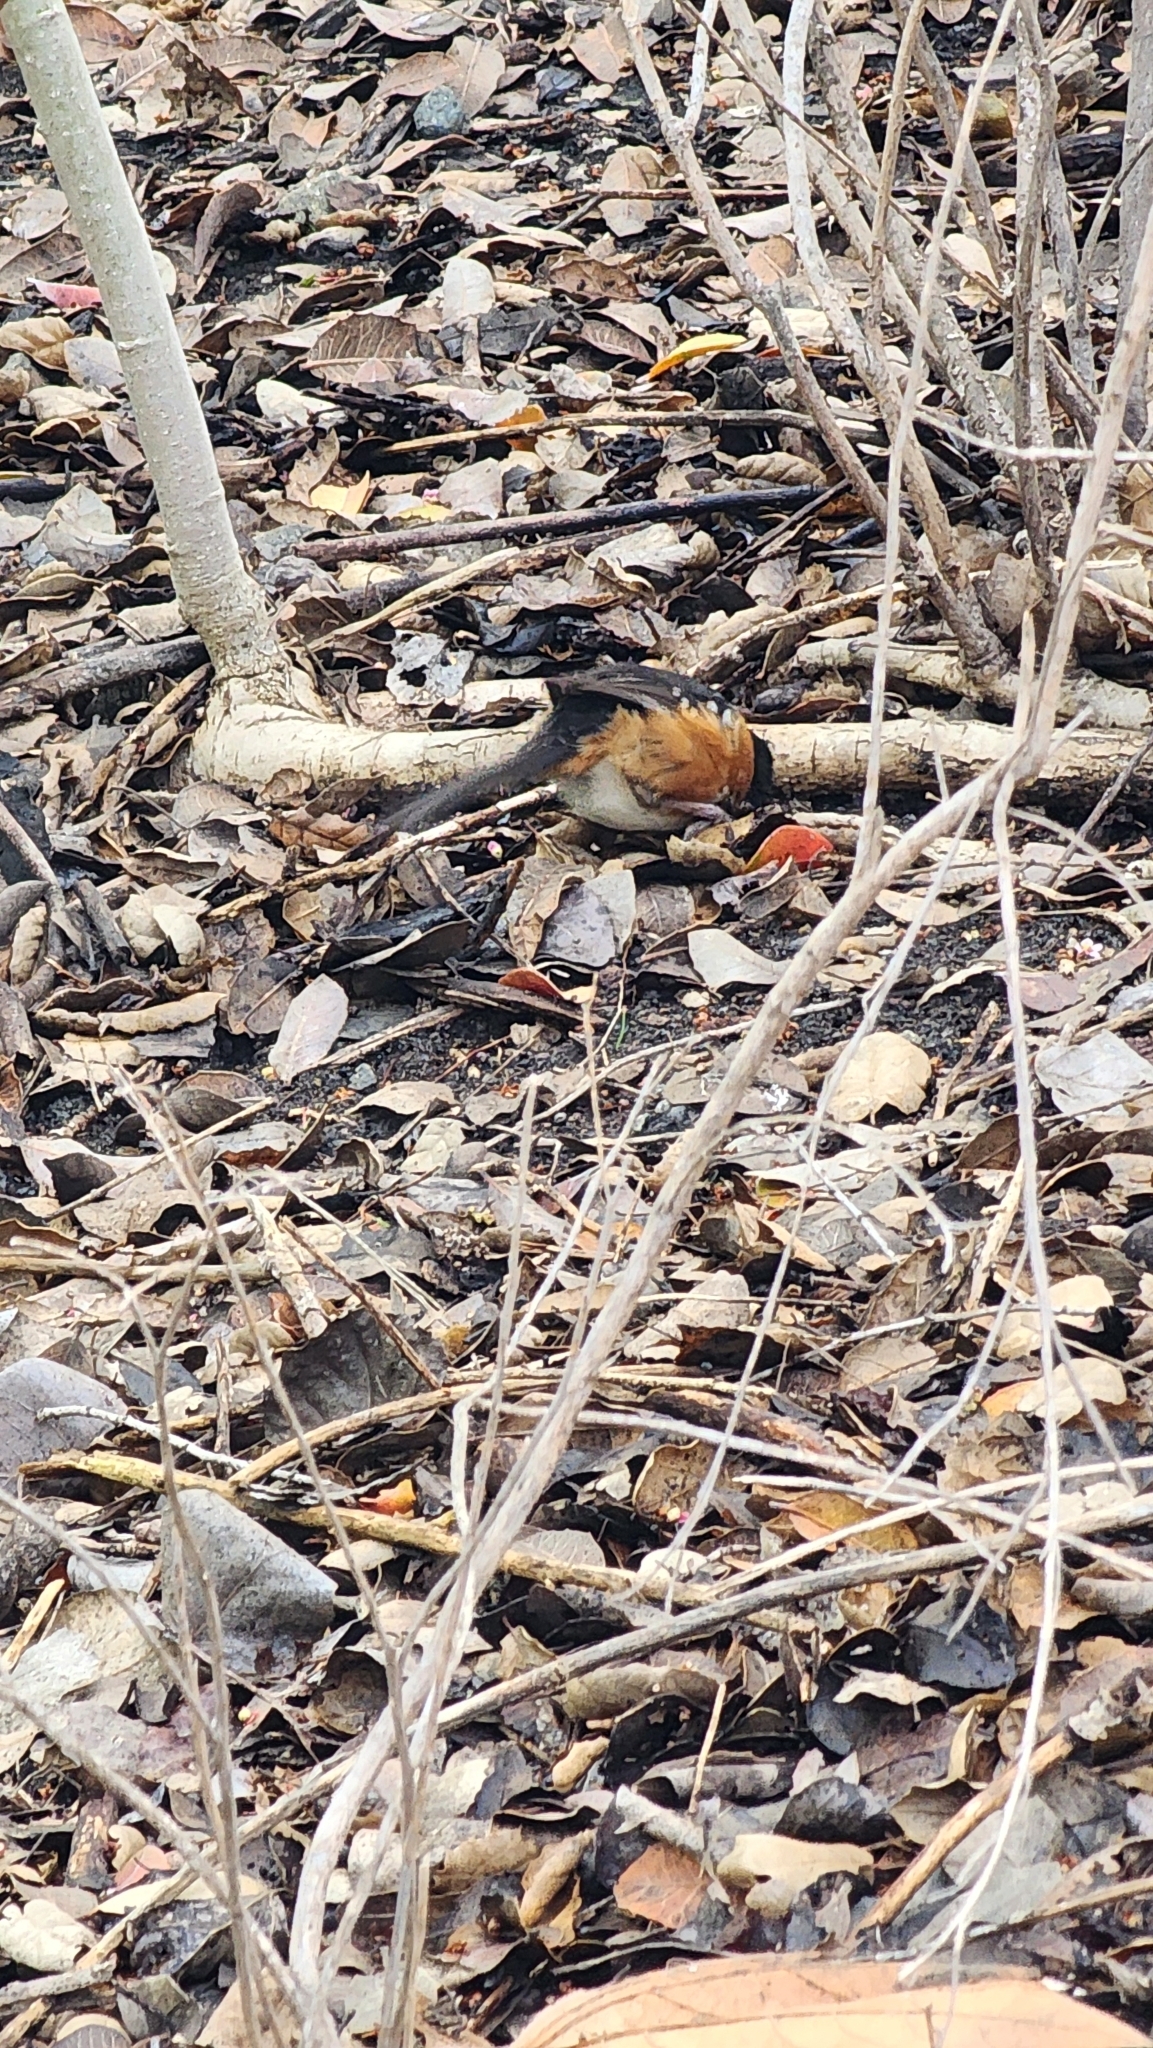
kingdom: Animalia
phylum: Chordata
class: Aves
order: Passeriformes
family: Passerellidae
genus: Pipilo
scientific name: Pipilo maculatus
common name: Spotted towhee
